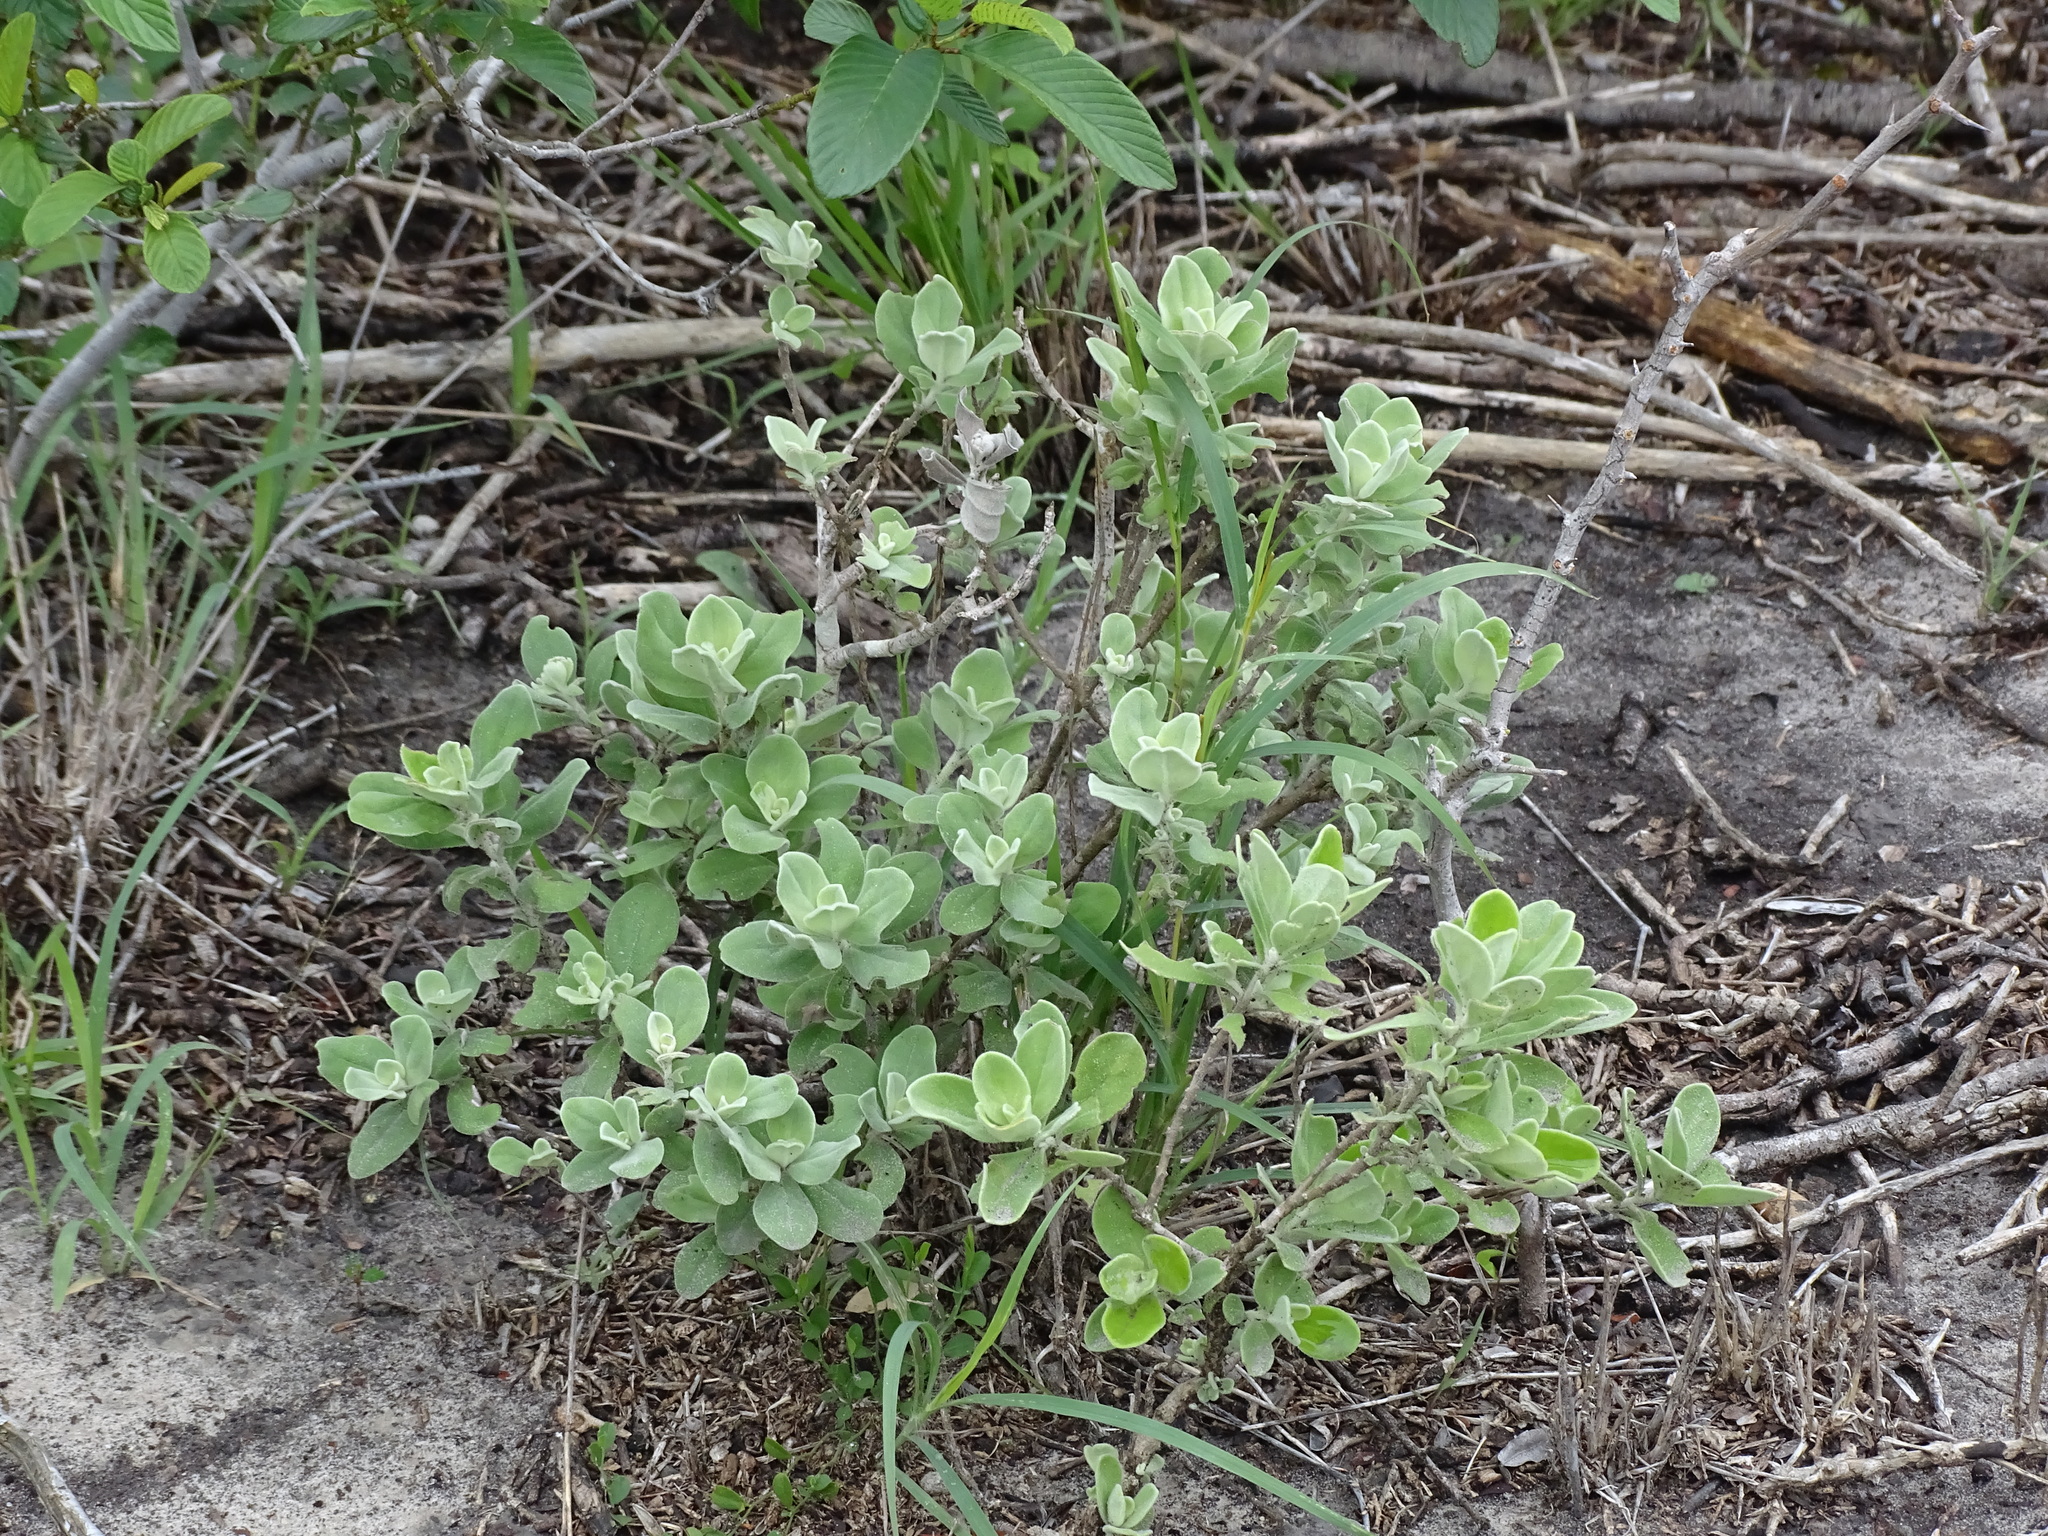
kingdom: Plantae
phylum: Tracheophyta
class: Magnoliopsida
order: Lamiales
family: Scrophulariaceae
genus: Leucophyllum
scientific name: Leucophyllum frutescens
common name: Texas silverleaf
